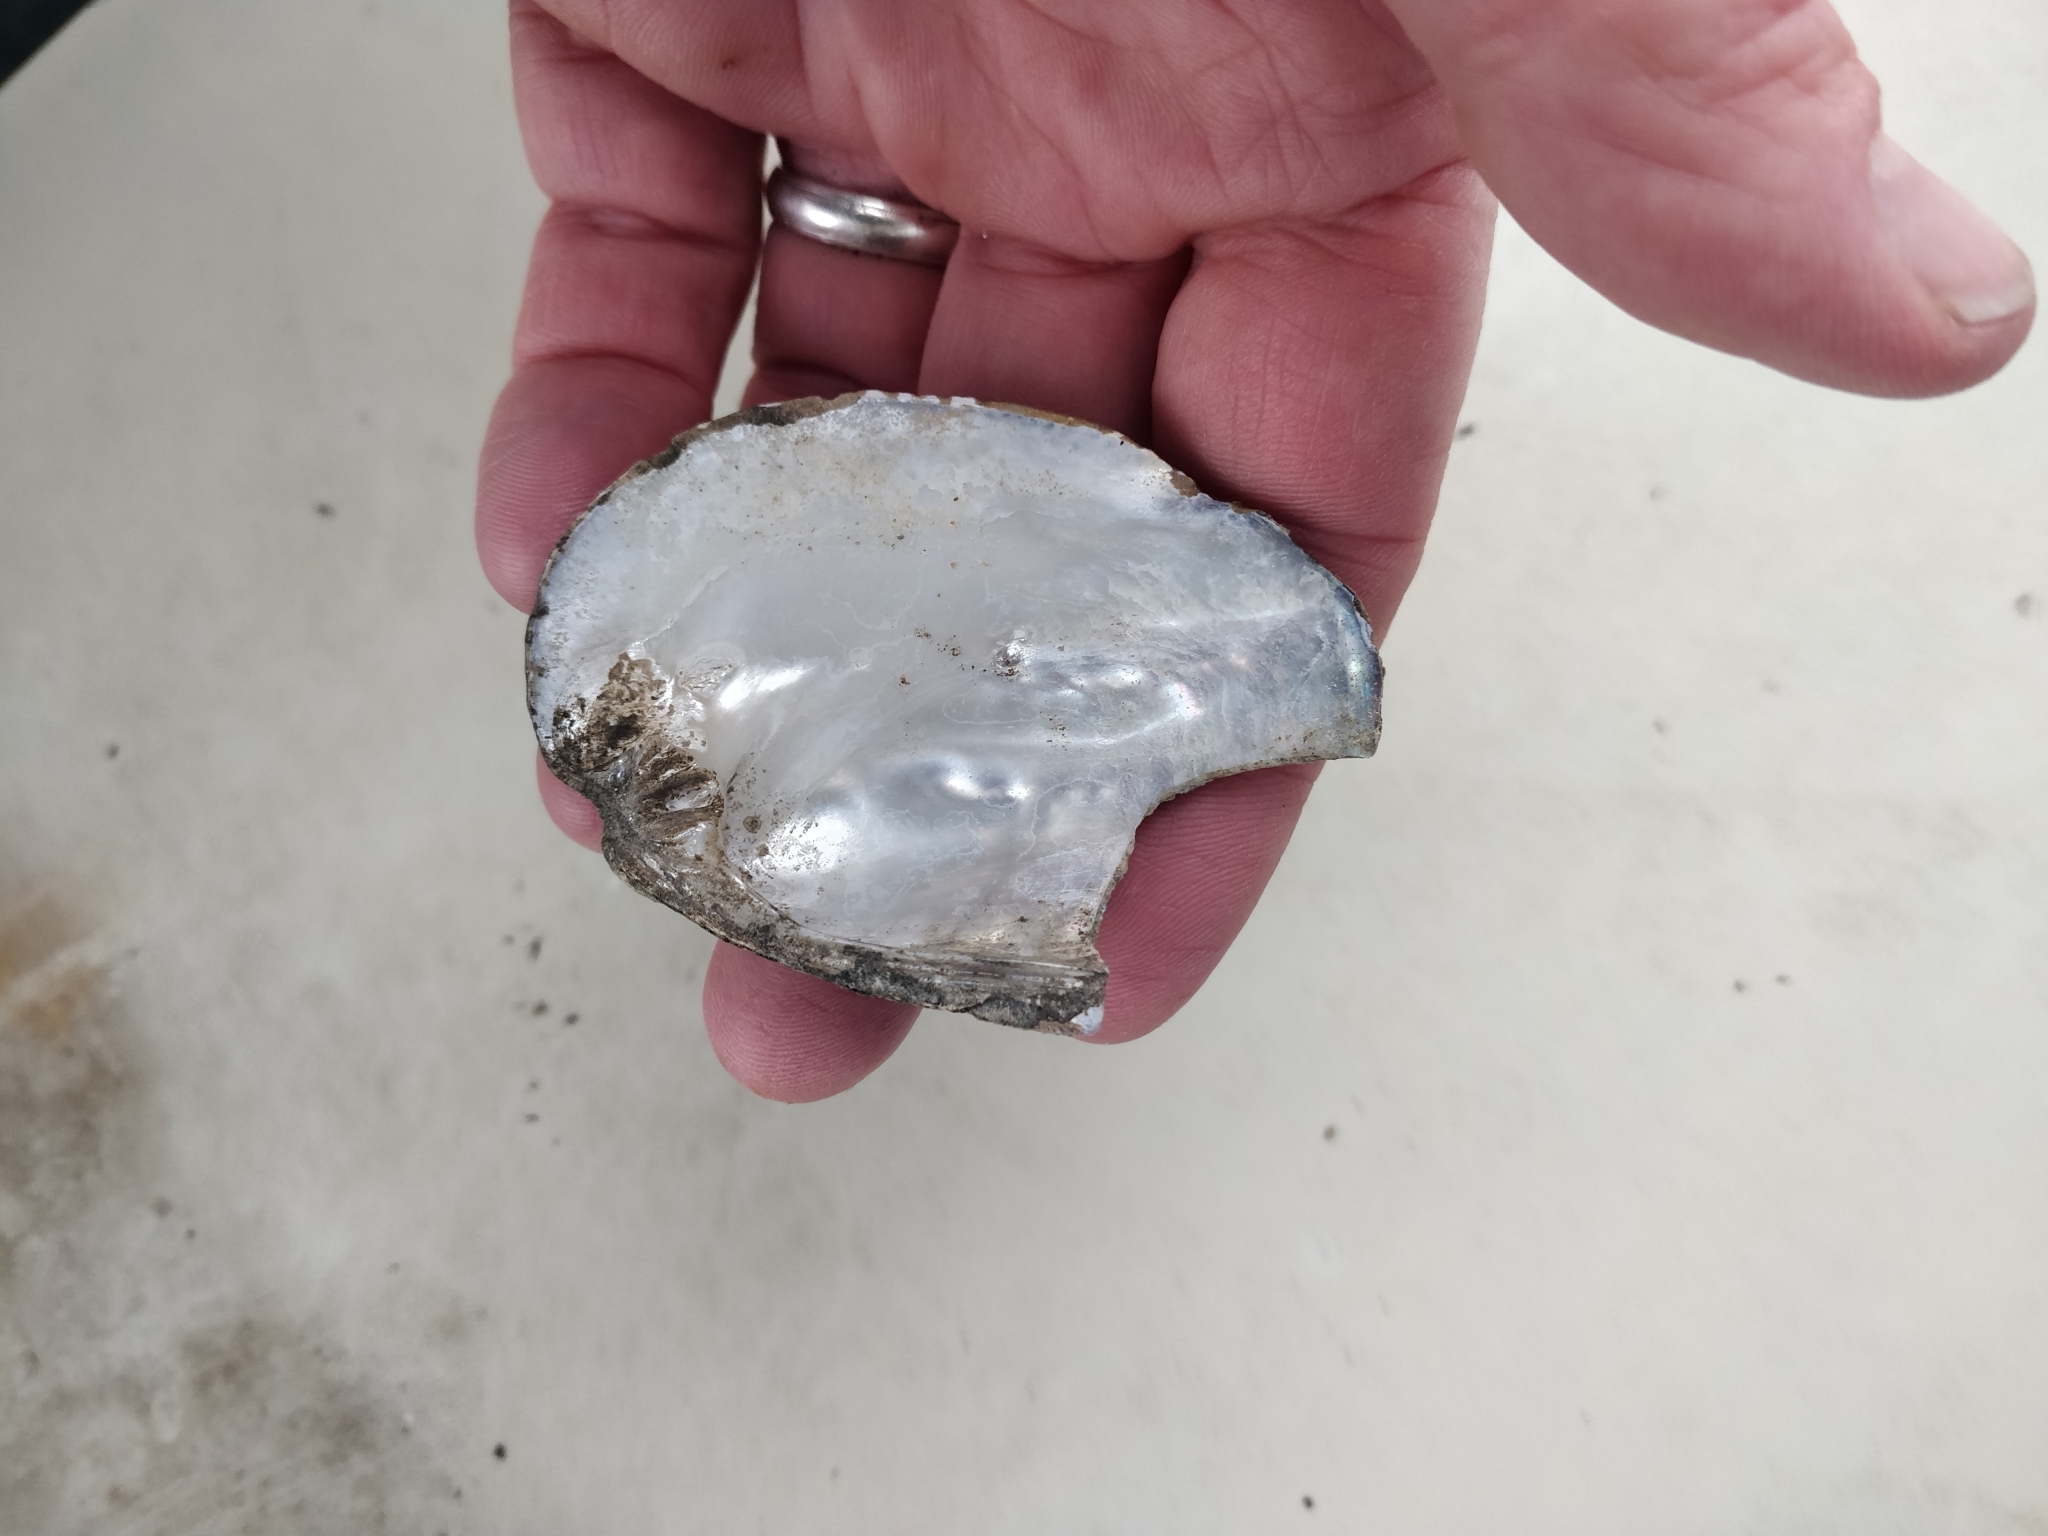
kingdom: Animalia
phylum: Mollusca
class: Bivalvia
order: Unionida
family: Unionidae
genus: Amblema
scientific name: Amblema plicata
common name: Threeridge
